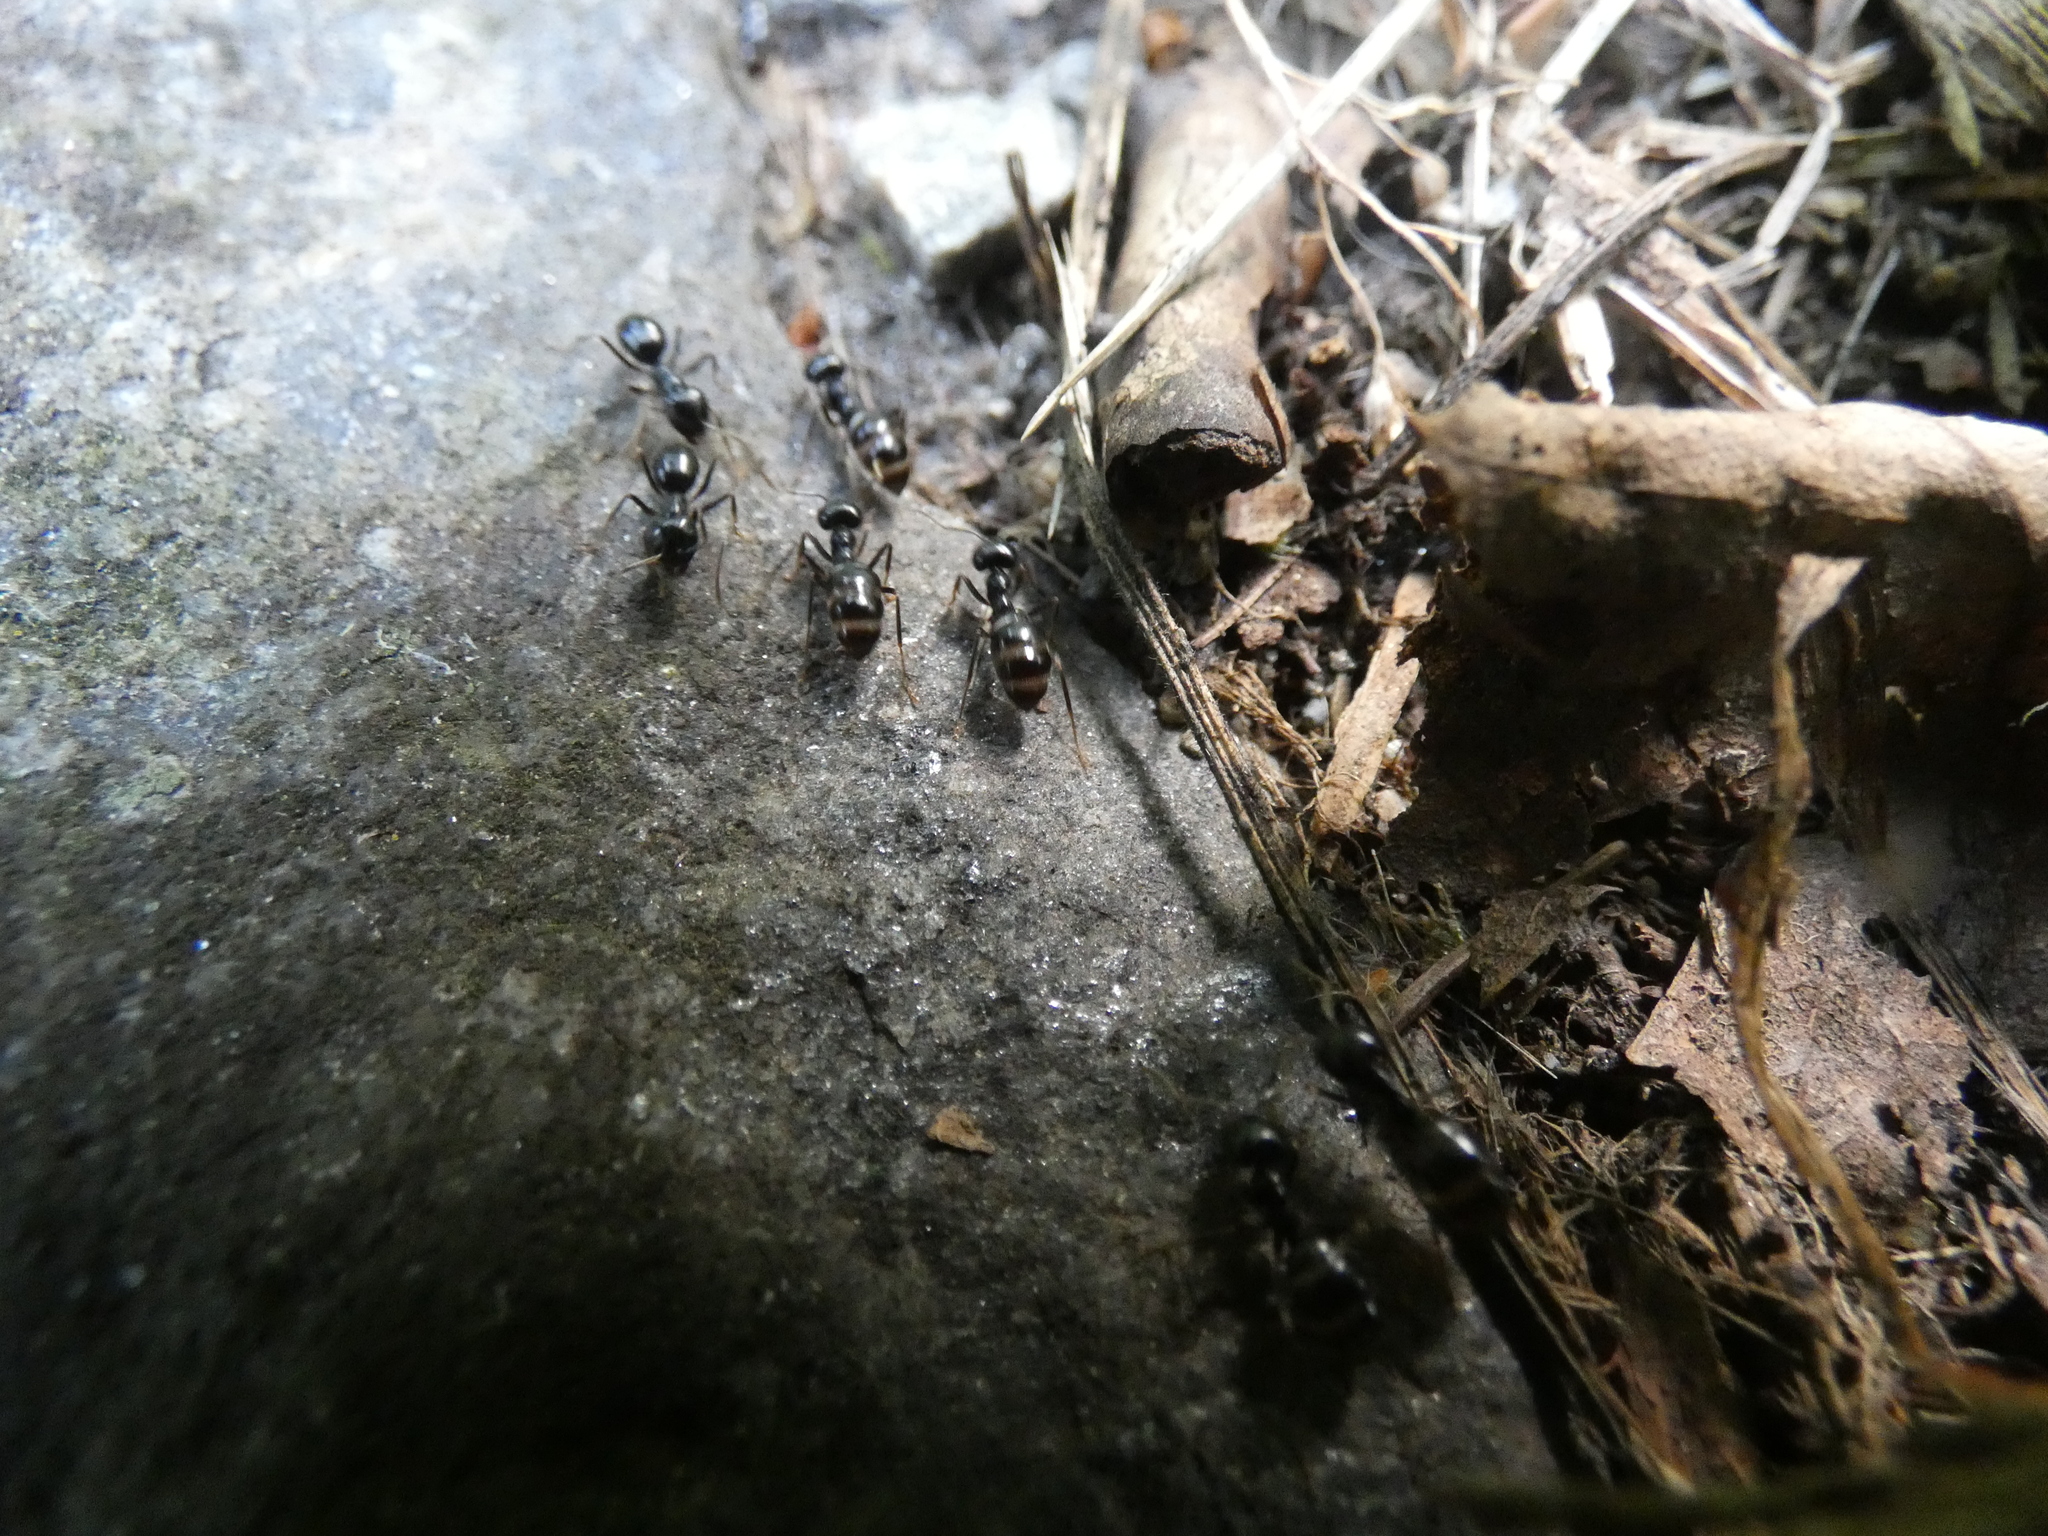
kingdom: Animalia
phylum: Arthropoda
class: Insecta
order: Hymenoptera
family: Formicidae
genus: Lasius
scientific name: Lasius fuliginosus
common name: Jet ant
